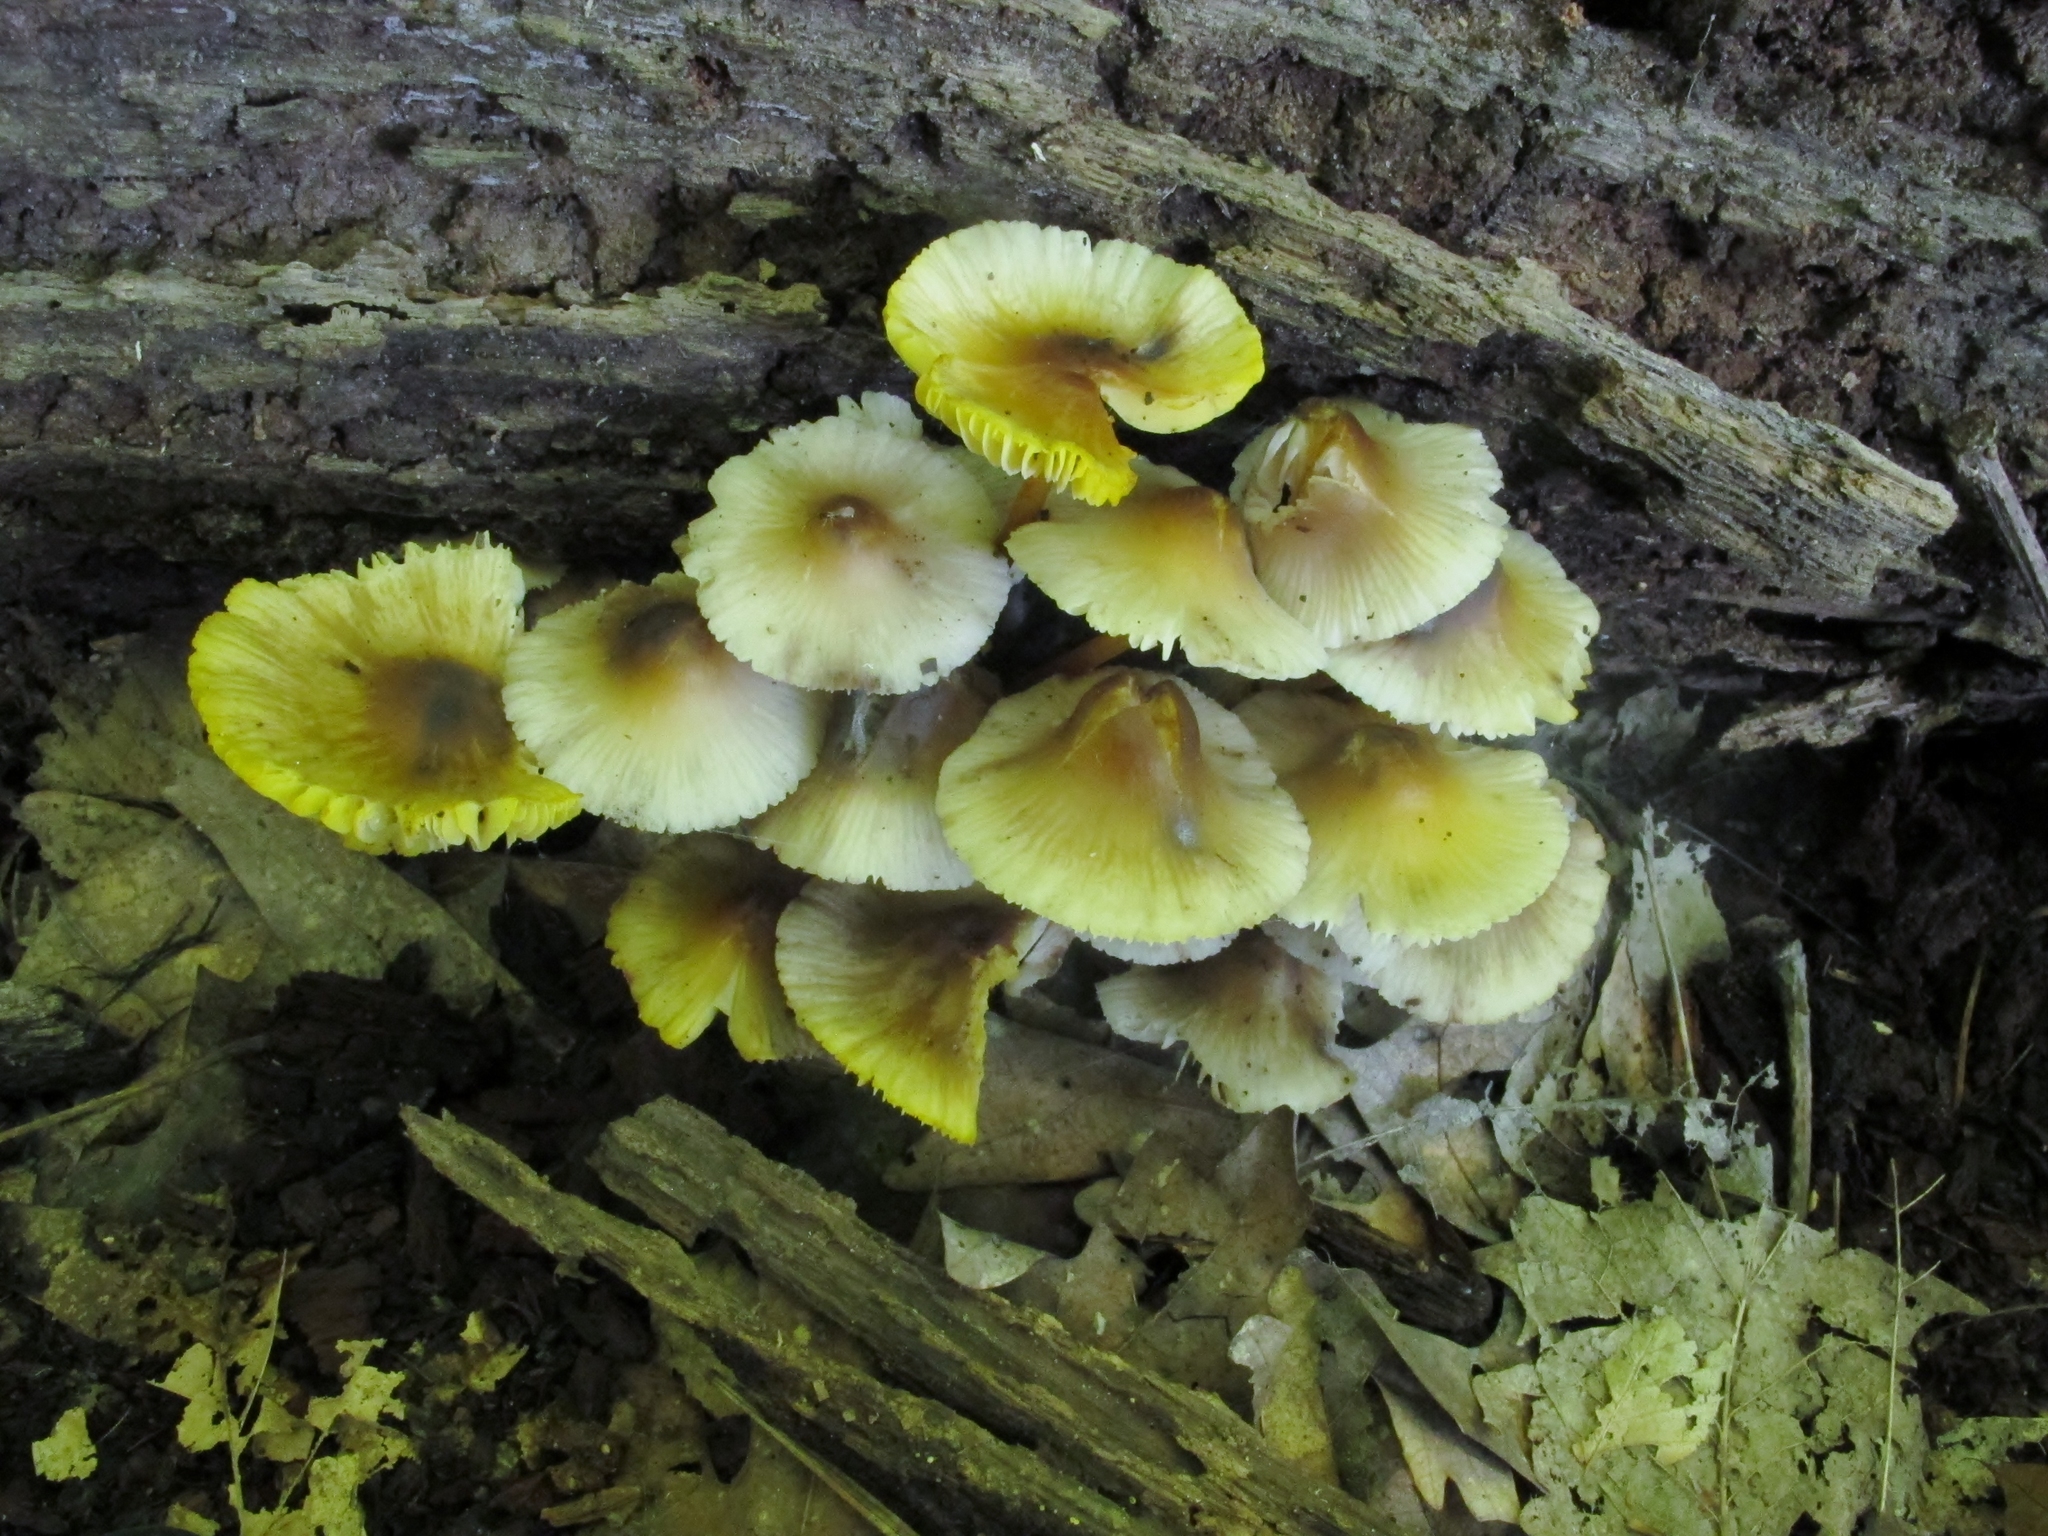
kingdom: Fungi
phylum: Basidiomycota
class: Agaricomycetes
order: Agaricales
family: Mycenaceae
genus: Mycena
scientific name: Mycena inclinata
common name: Clustered bonnet
